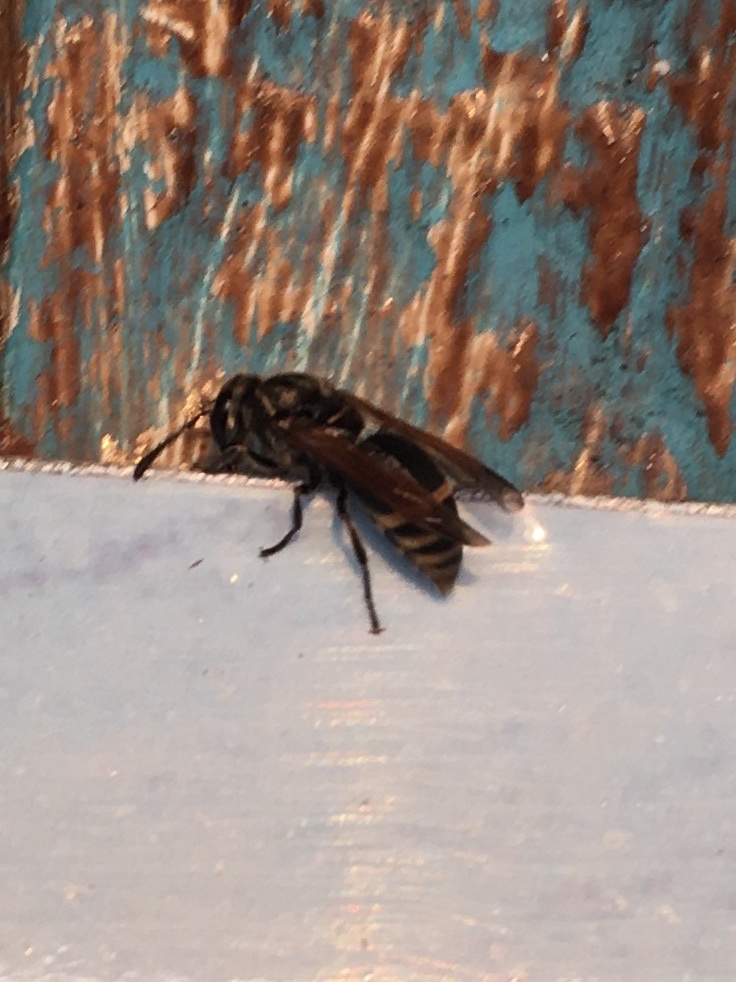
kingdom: Animalia
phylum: Arthropoda
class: Insecta
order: Hymenoptera
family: Eumenidae
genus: Pachodynerus
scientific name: Pachodynerus nasidens
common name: Key hole wasp
